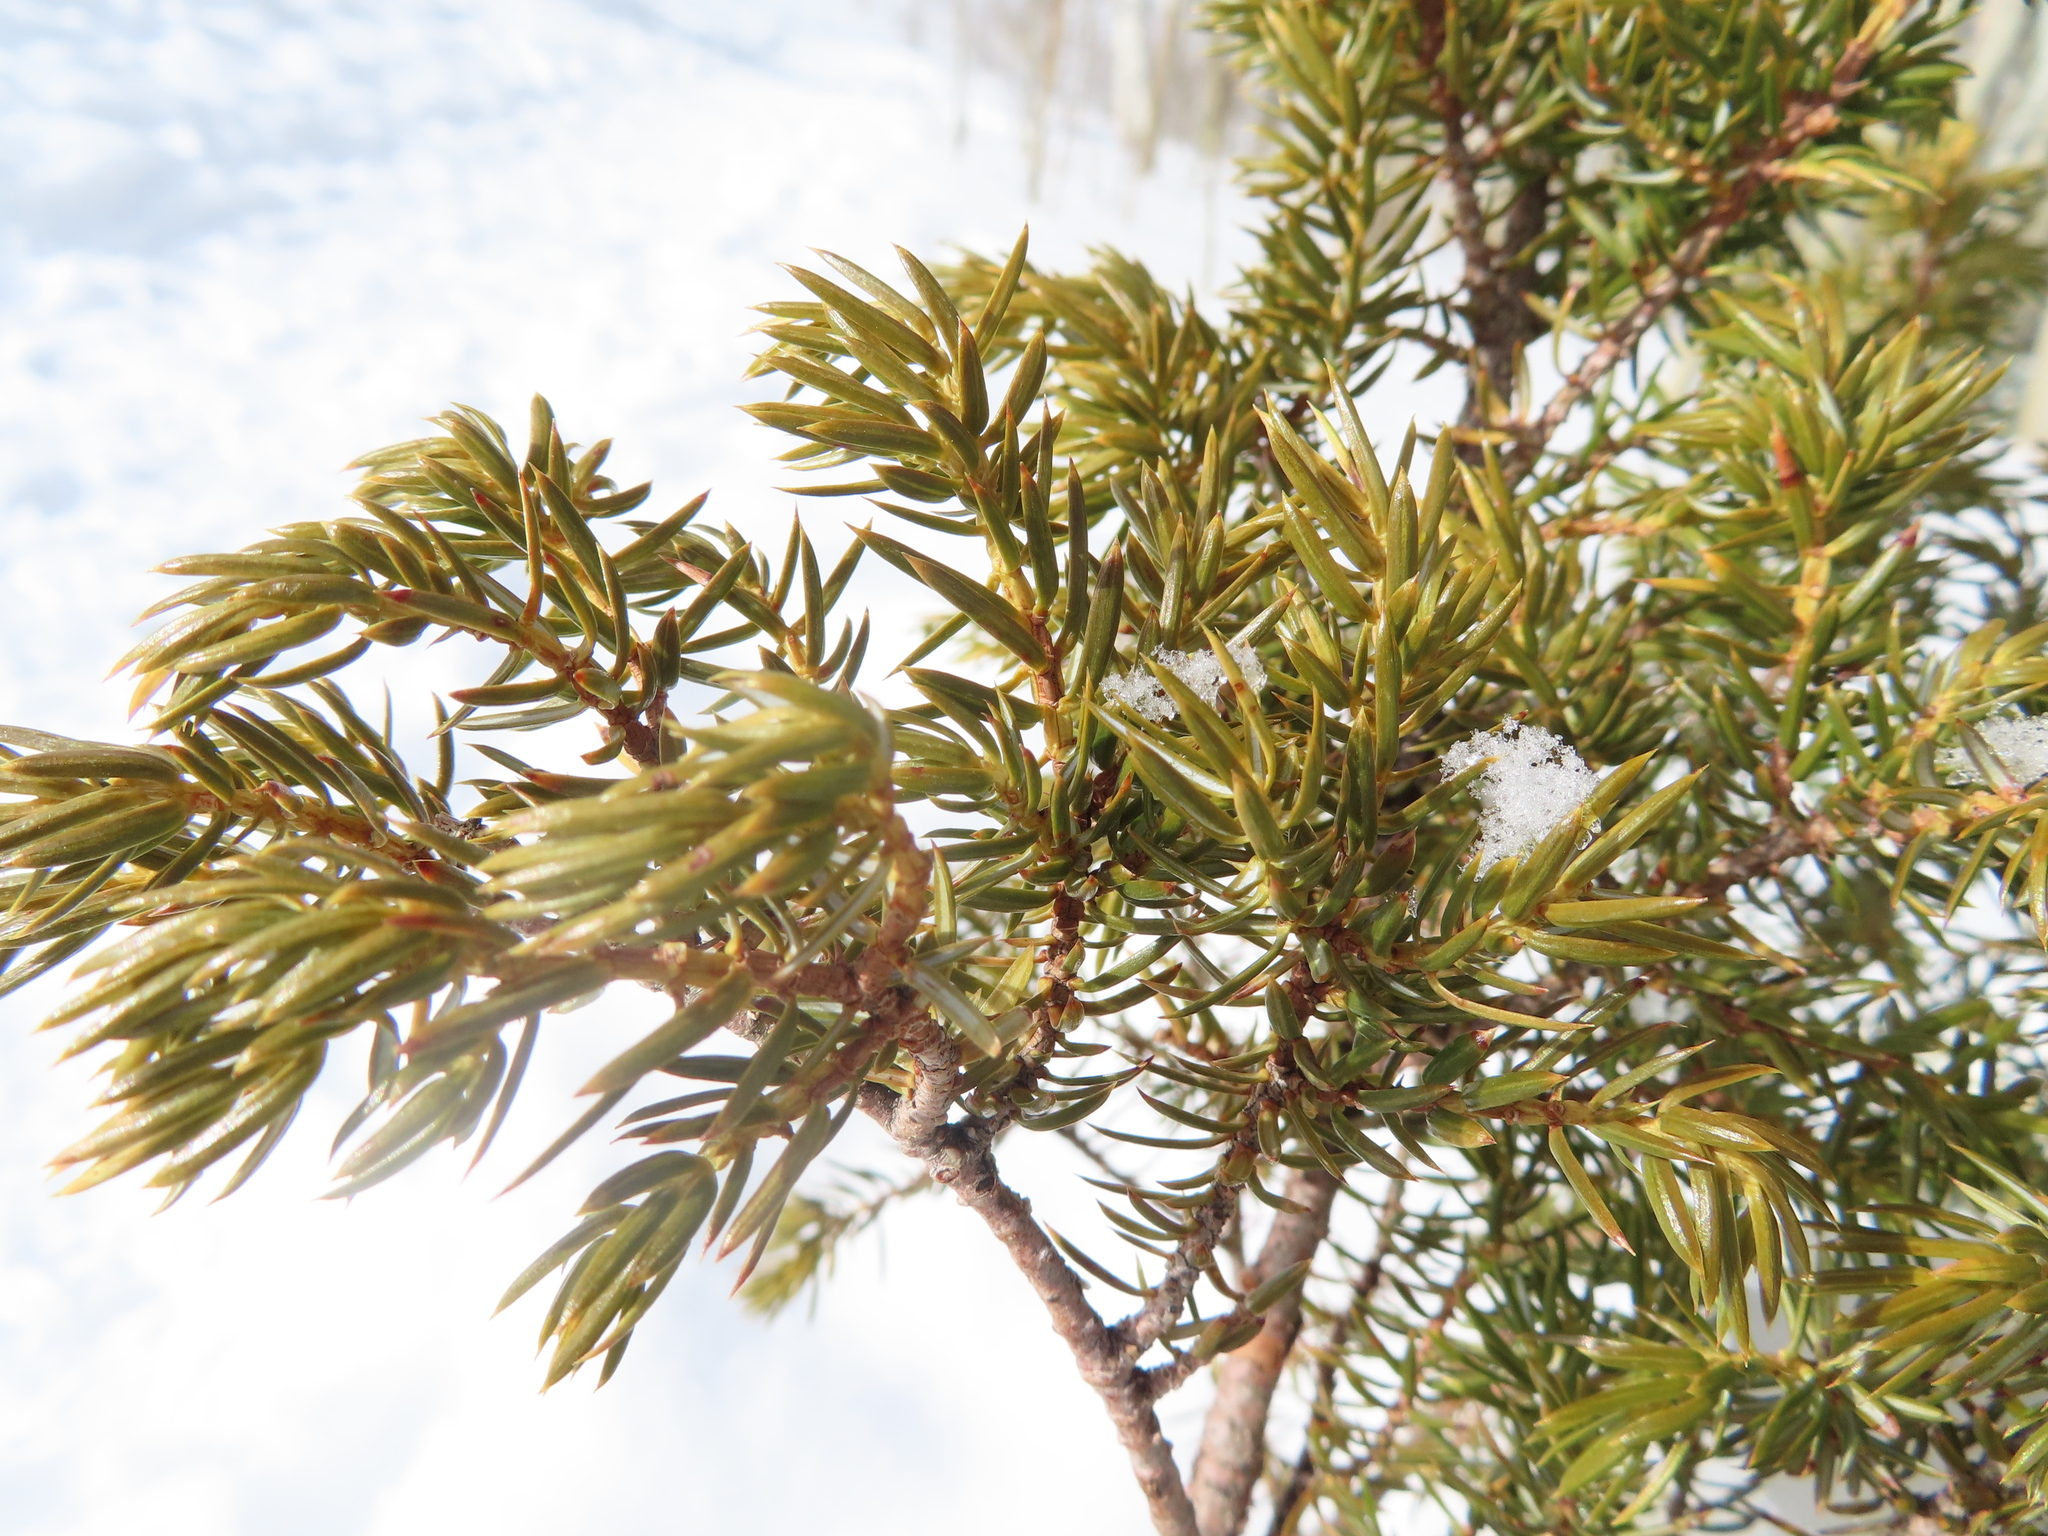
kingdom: Plantae
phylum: Tracheophyta
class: Pinopsida
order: Pinales
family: Cupressaceae
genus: Juniperus
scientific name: Juniperus communis
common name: Common juniper
